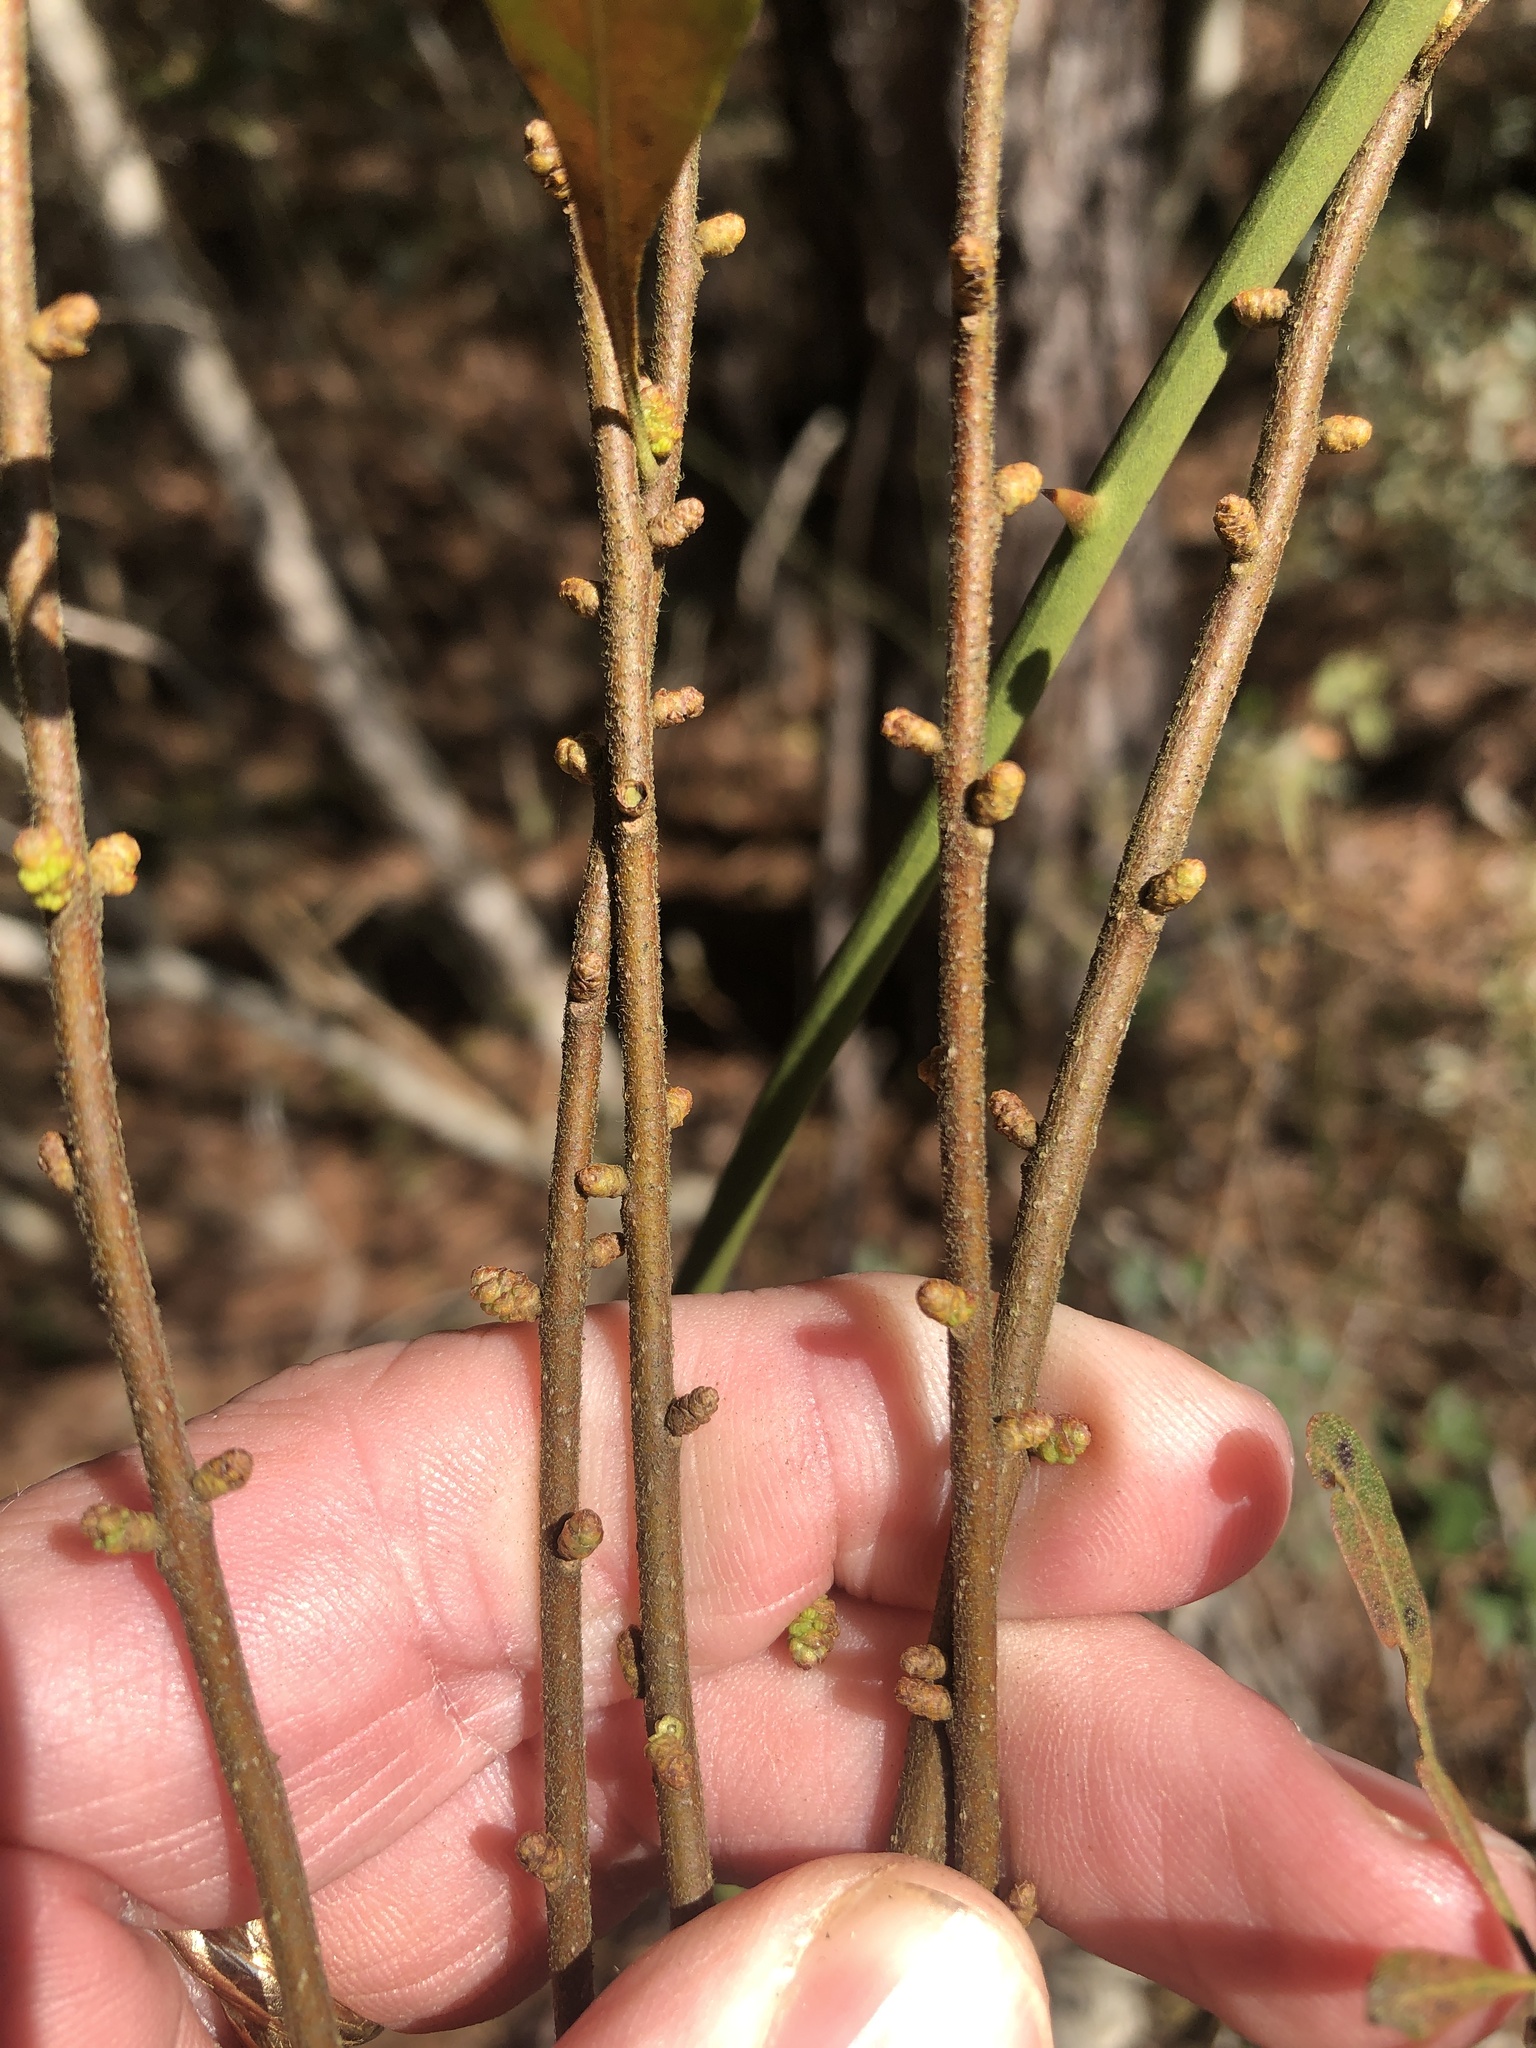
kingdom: Plantae
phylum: Tracheophyta
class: Magnoliopsida
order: Fagales
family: Myricaceae
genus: Morella
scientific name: Morella cerifera
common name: Wax myrtle
